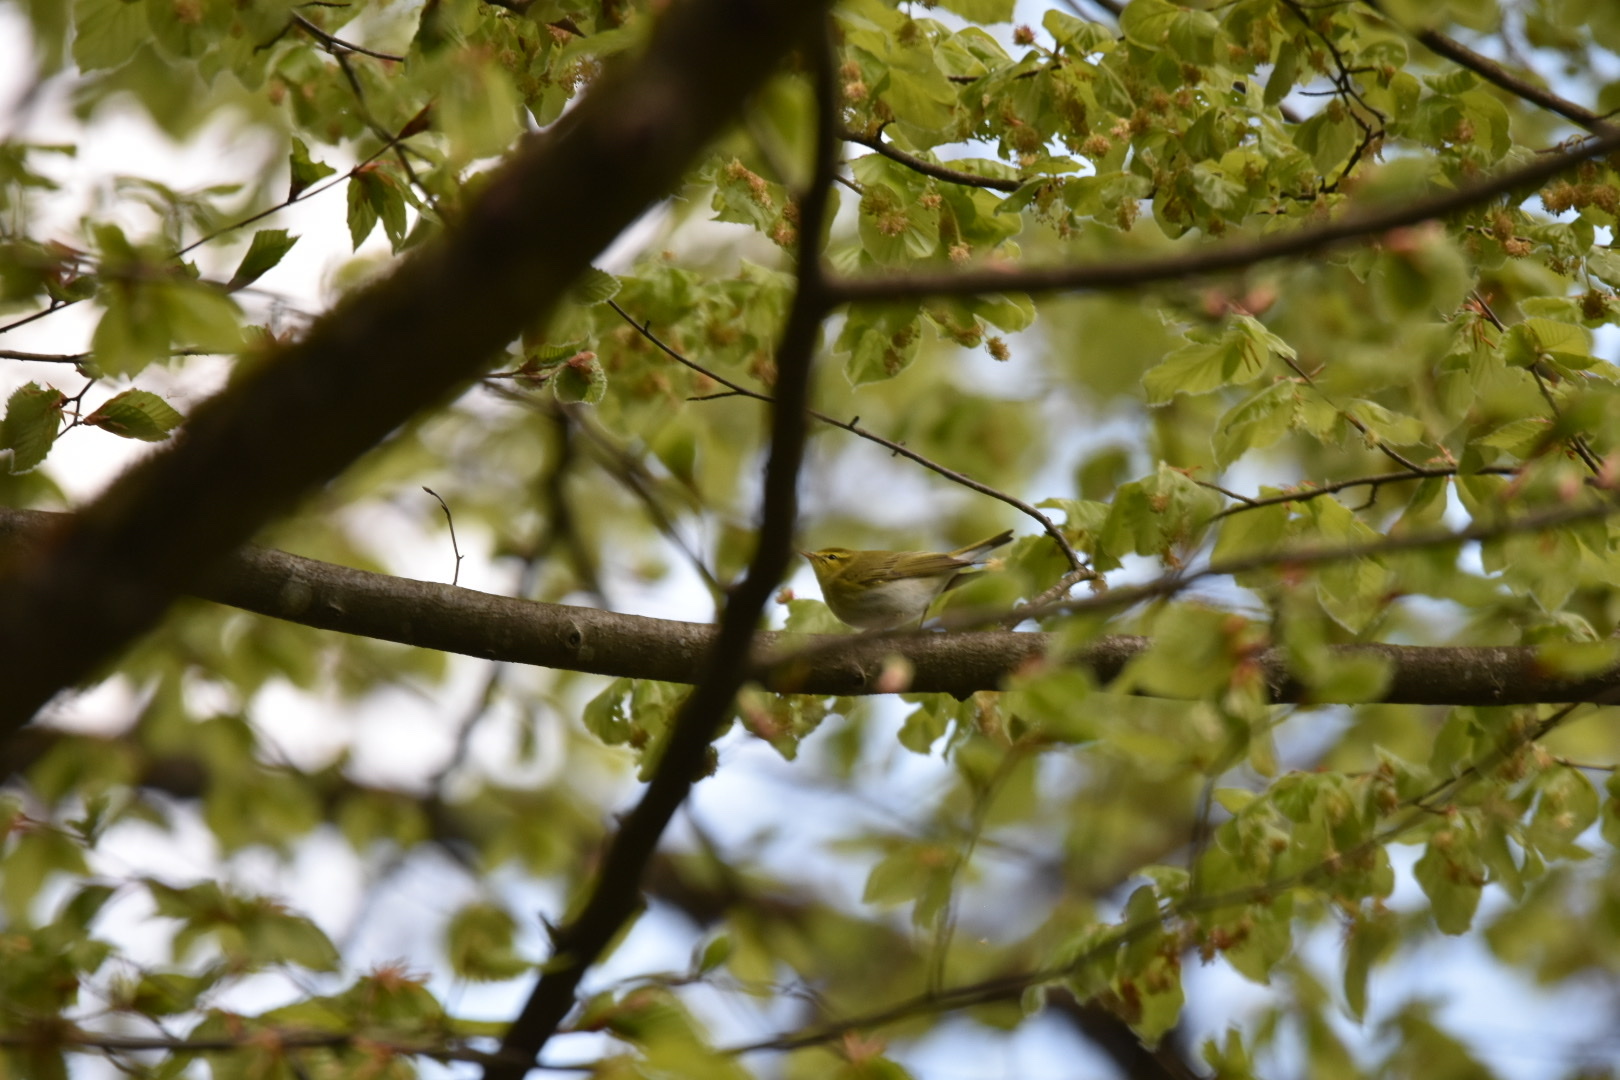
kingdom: Animalia
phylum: Chordata
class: Aves
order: Passeriformes
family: Phylloscopidae
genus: Phylloscopus
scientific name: Phylloscopus trochilus
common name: Willow warbler
